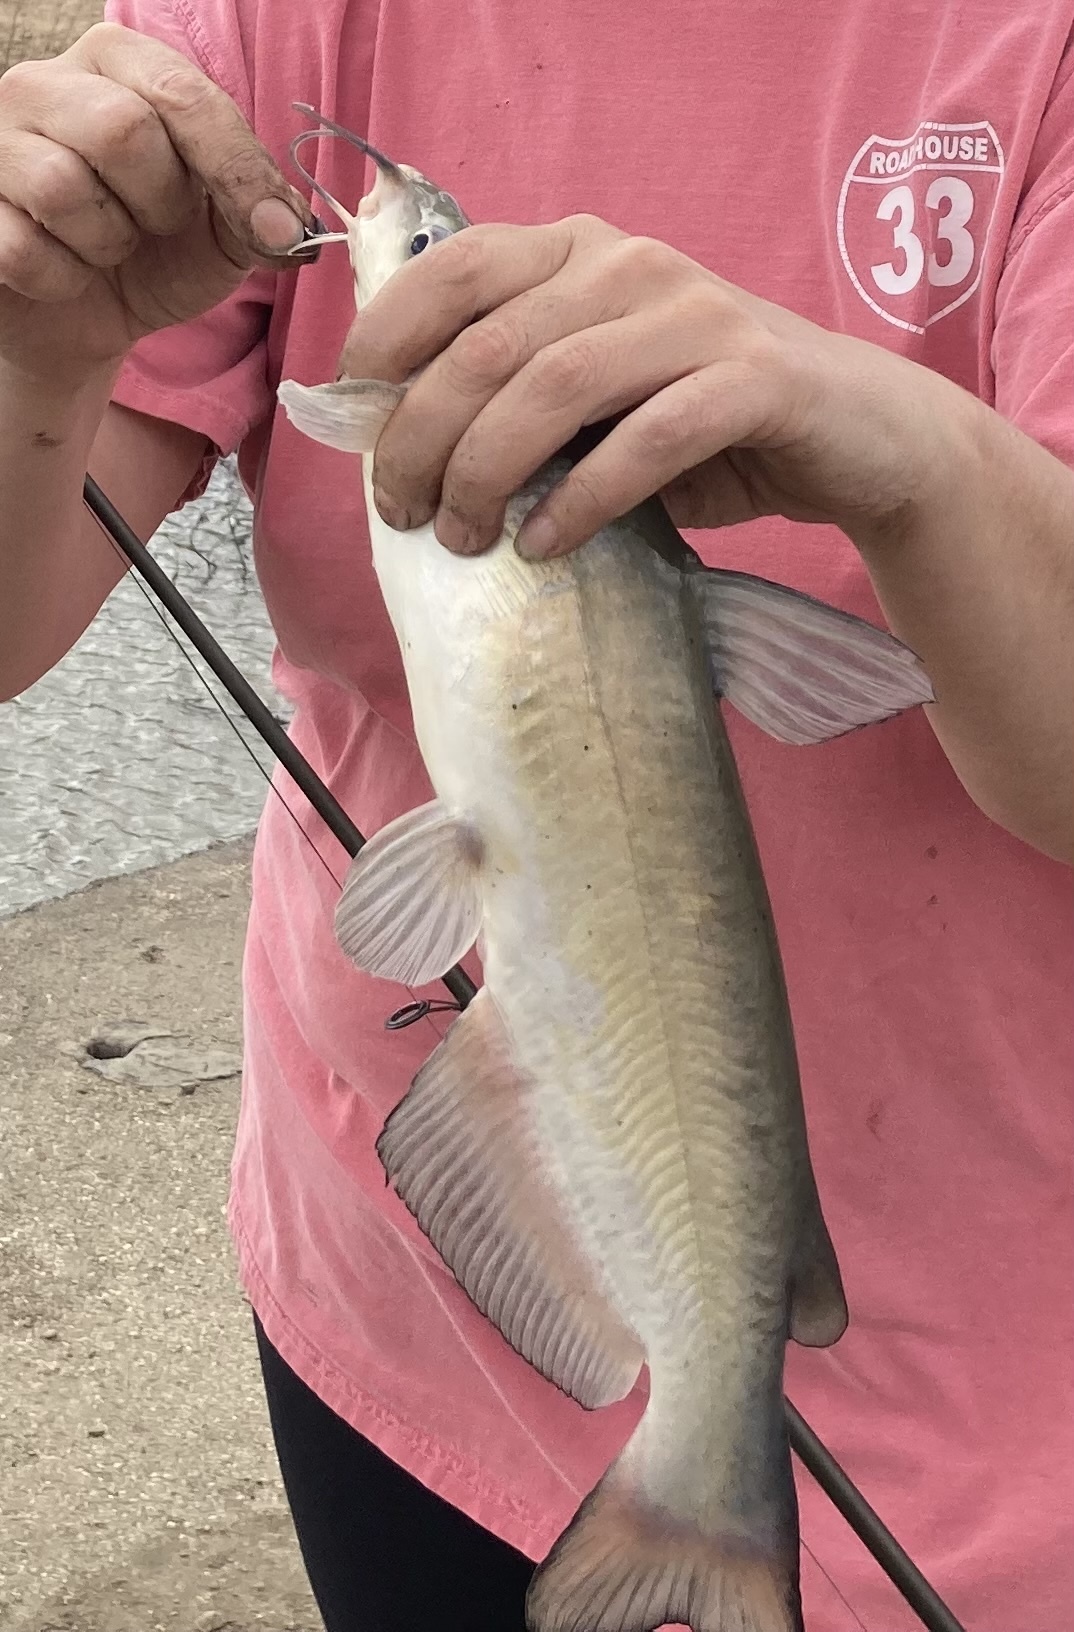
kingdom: Animalia
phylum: Chordata
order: Siluriformes
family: Ictaluridae
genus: Ictalurus
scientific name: Ictalurus punctatus
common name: Channel catfish
